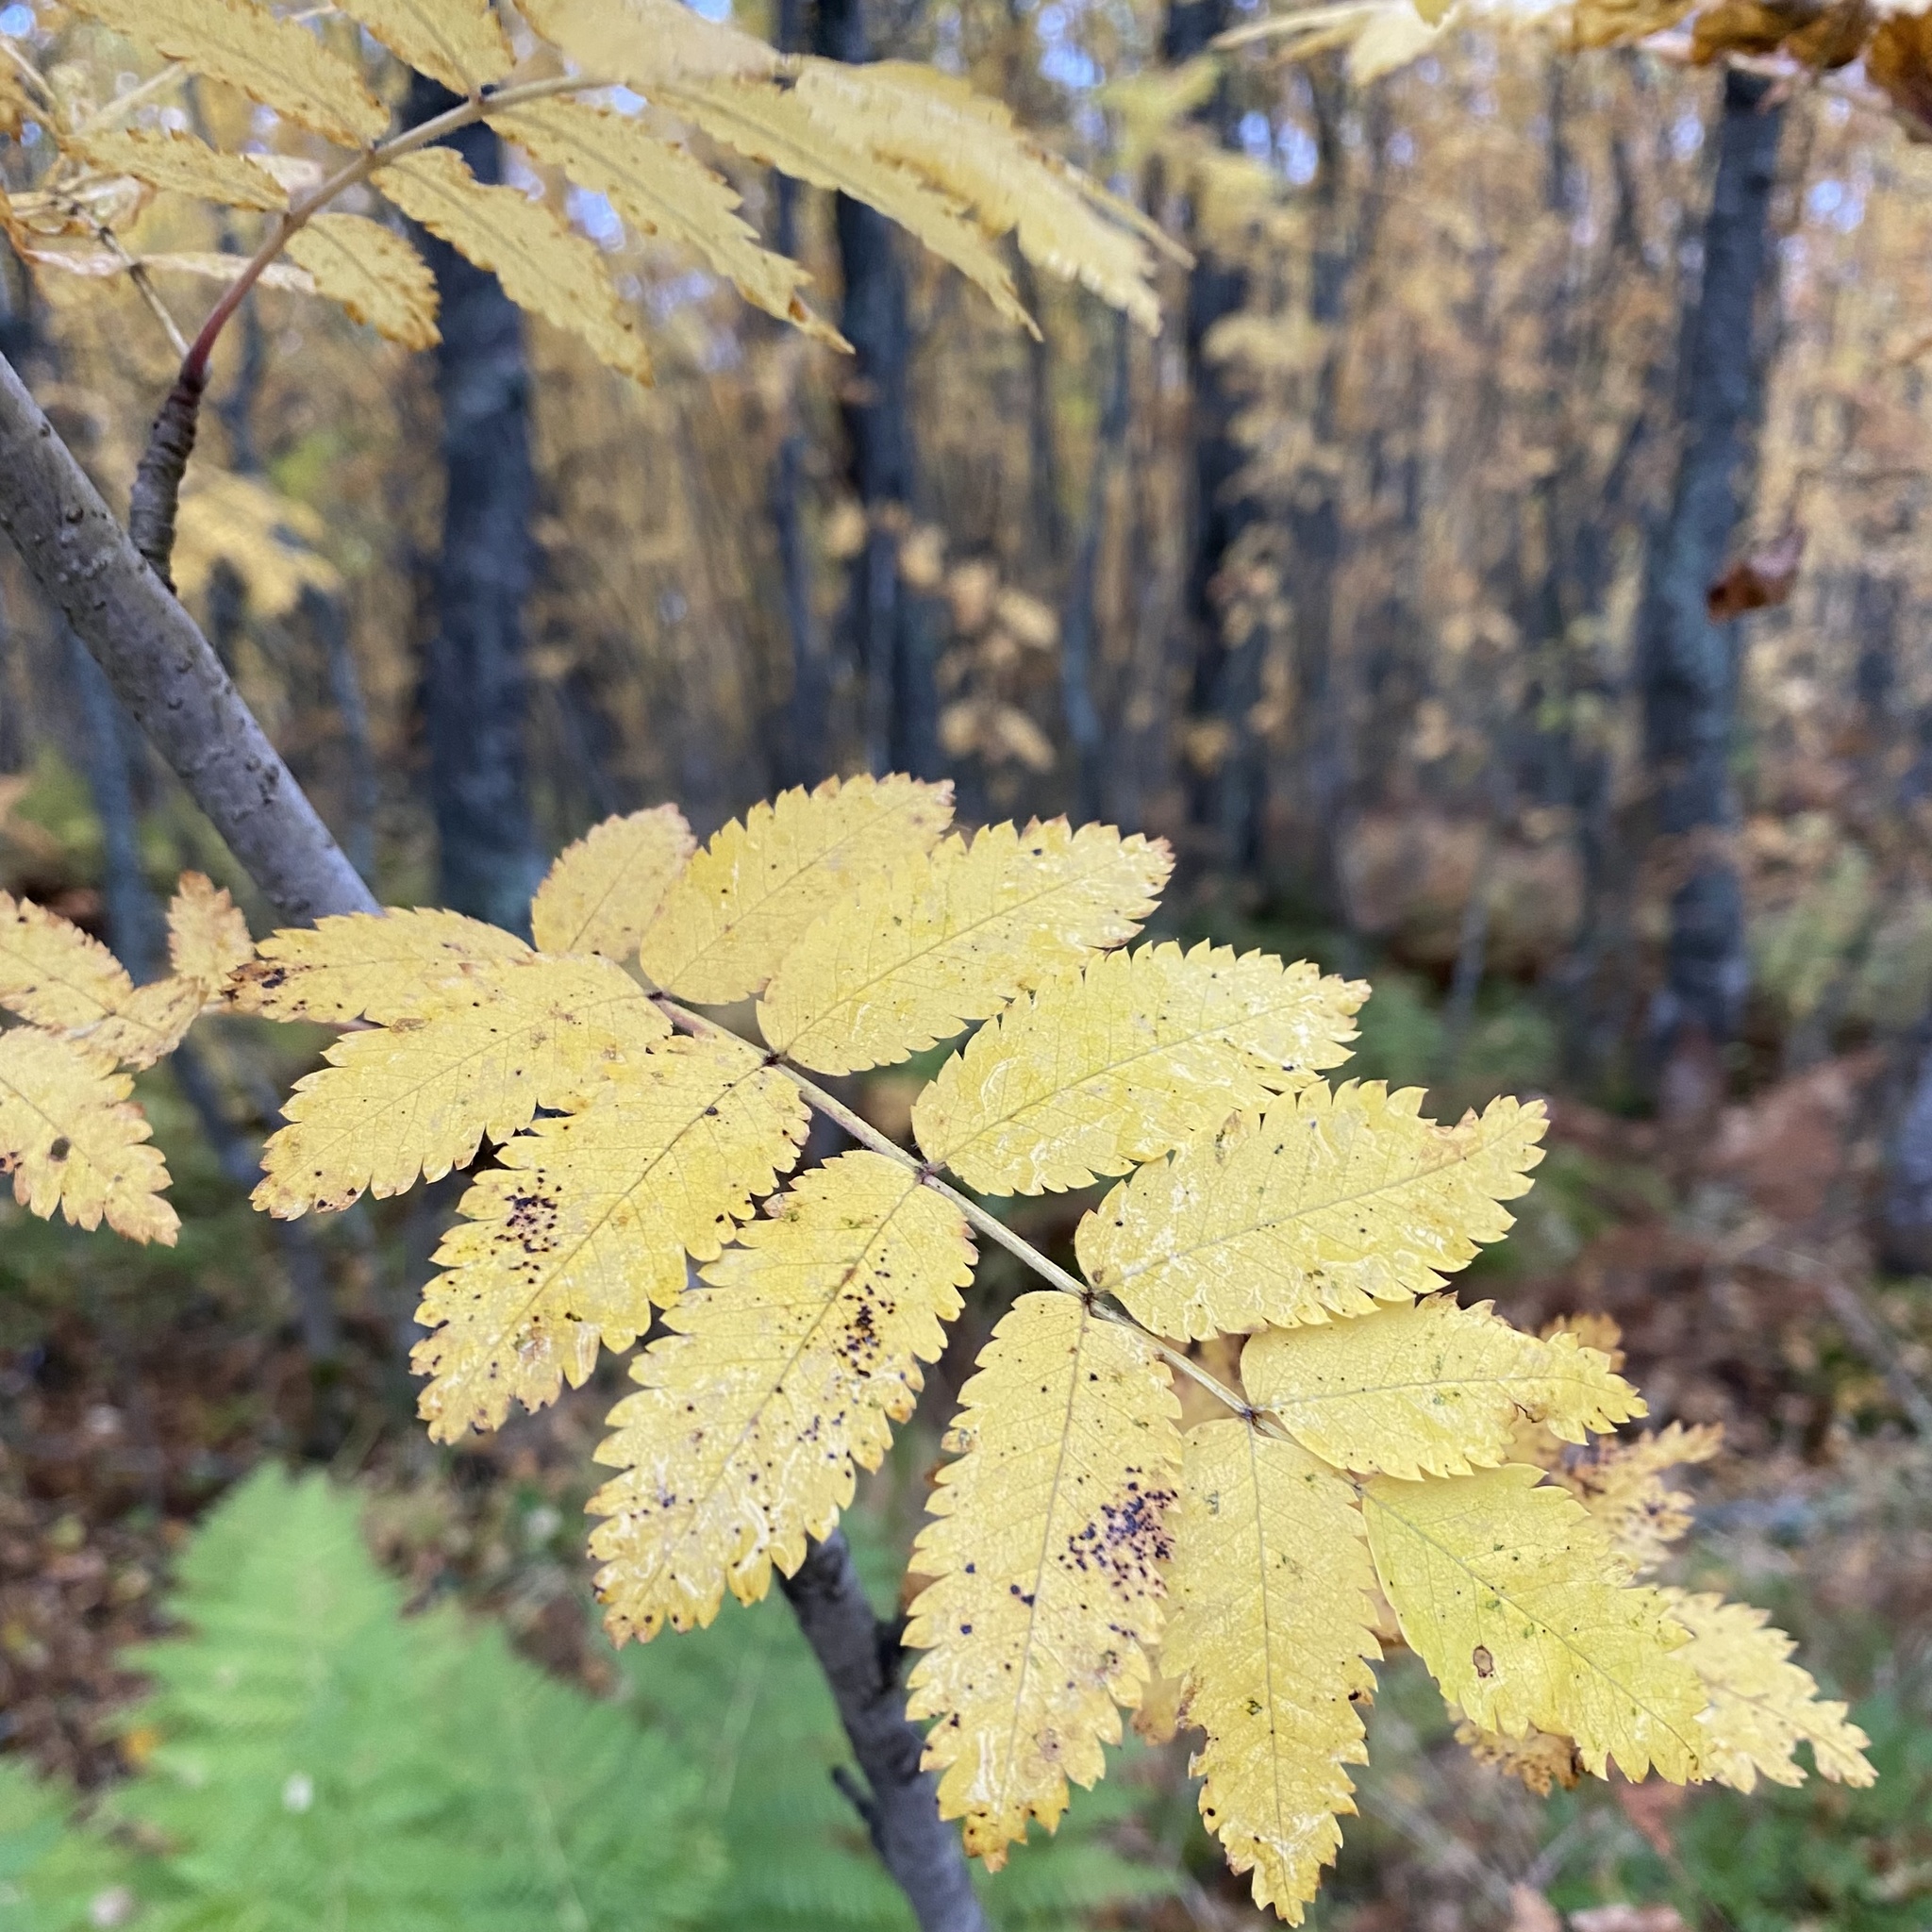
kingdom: Plantae
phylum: Tracheophyta
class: Magnoliopsida
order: Rosales
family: Rosaceae
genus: Sorbus
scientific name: Sorbus aucuparia
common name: Rowan
